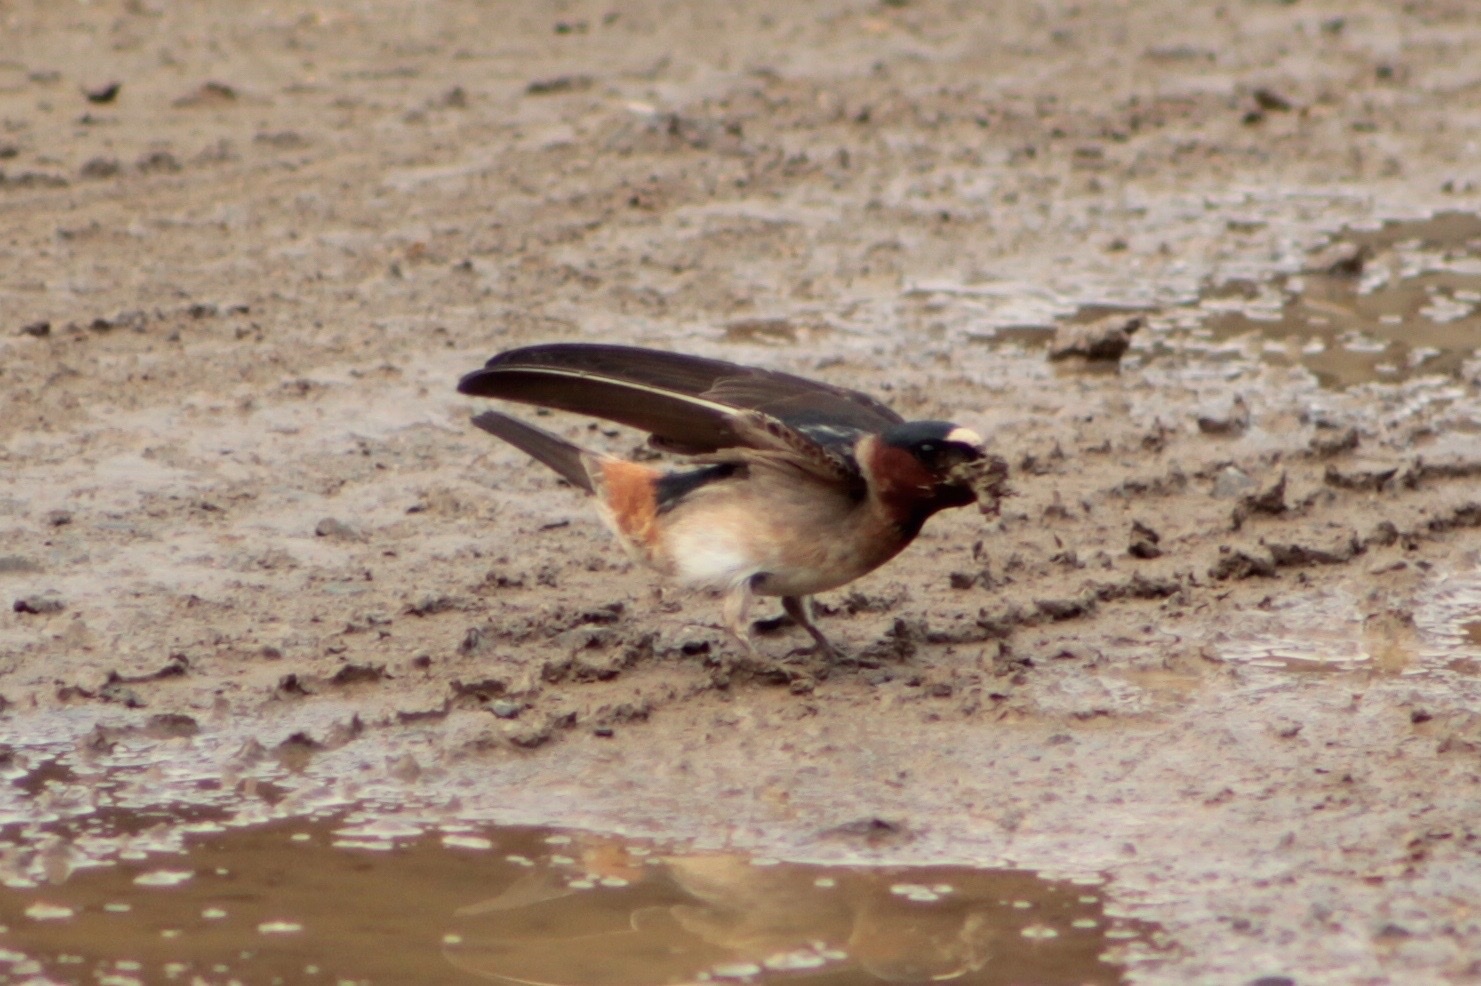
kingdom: Animalia
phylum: Chordata
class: Aves
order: Passeriformes
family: Hirundinidae
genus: Petrochelidon
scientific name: Petrochelidon pyrrhonota
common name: American cliff swallow
